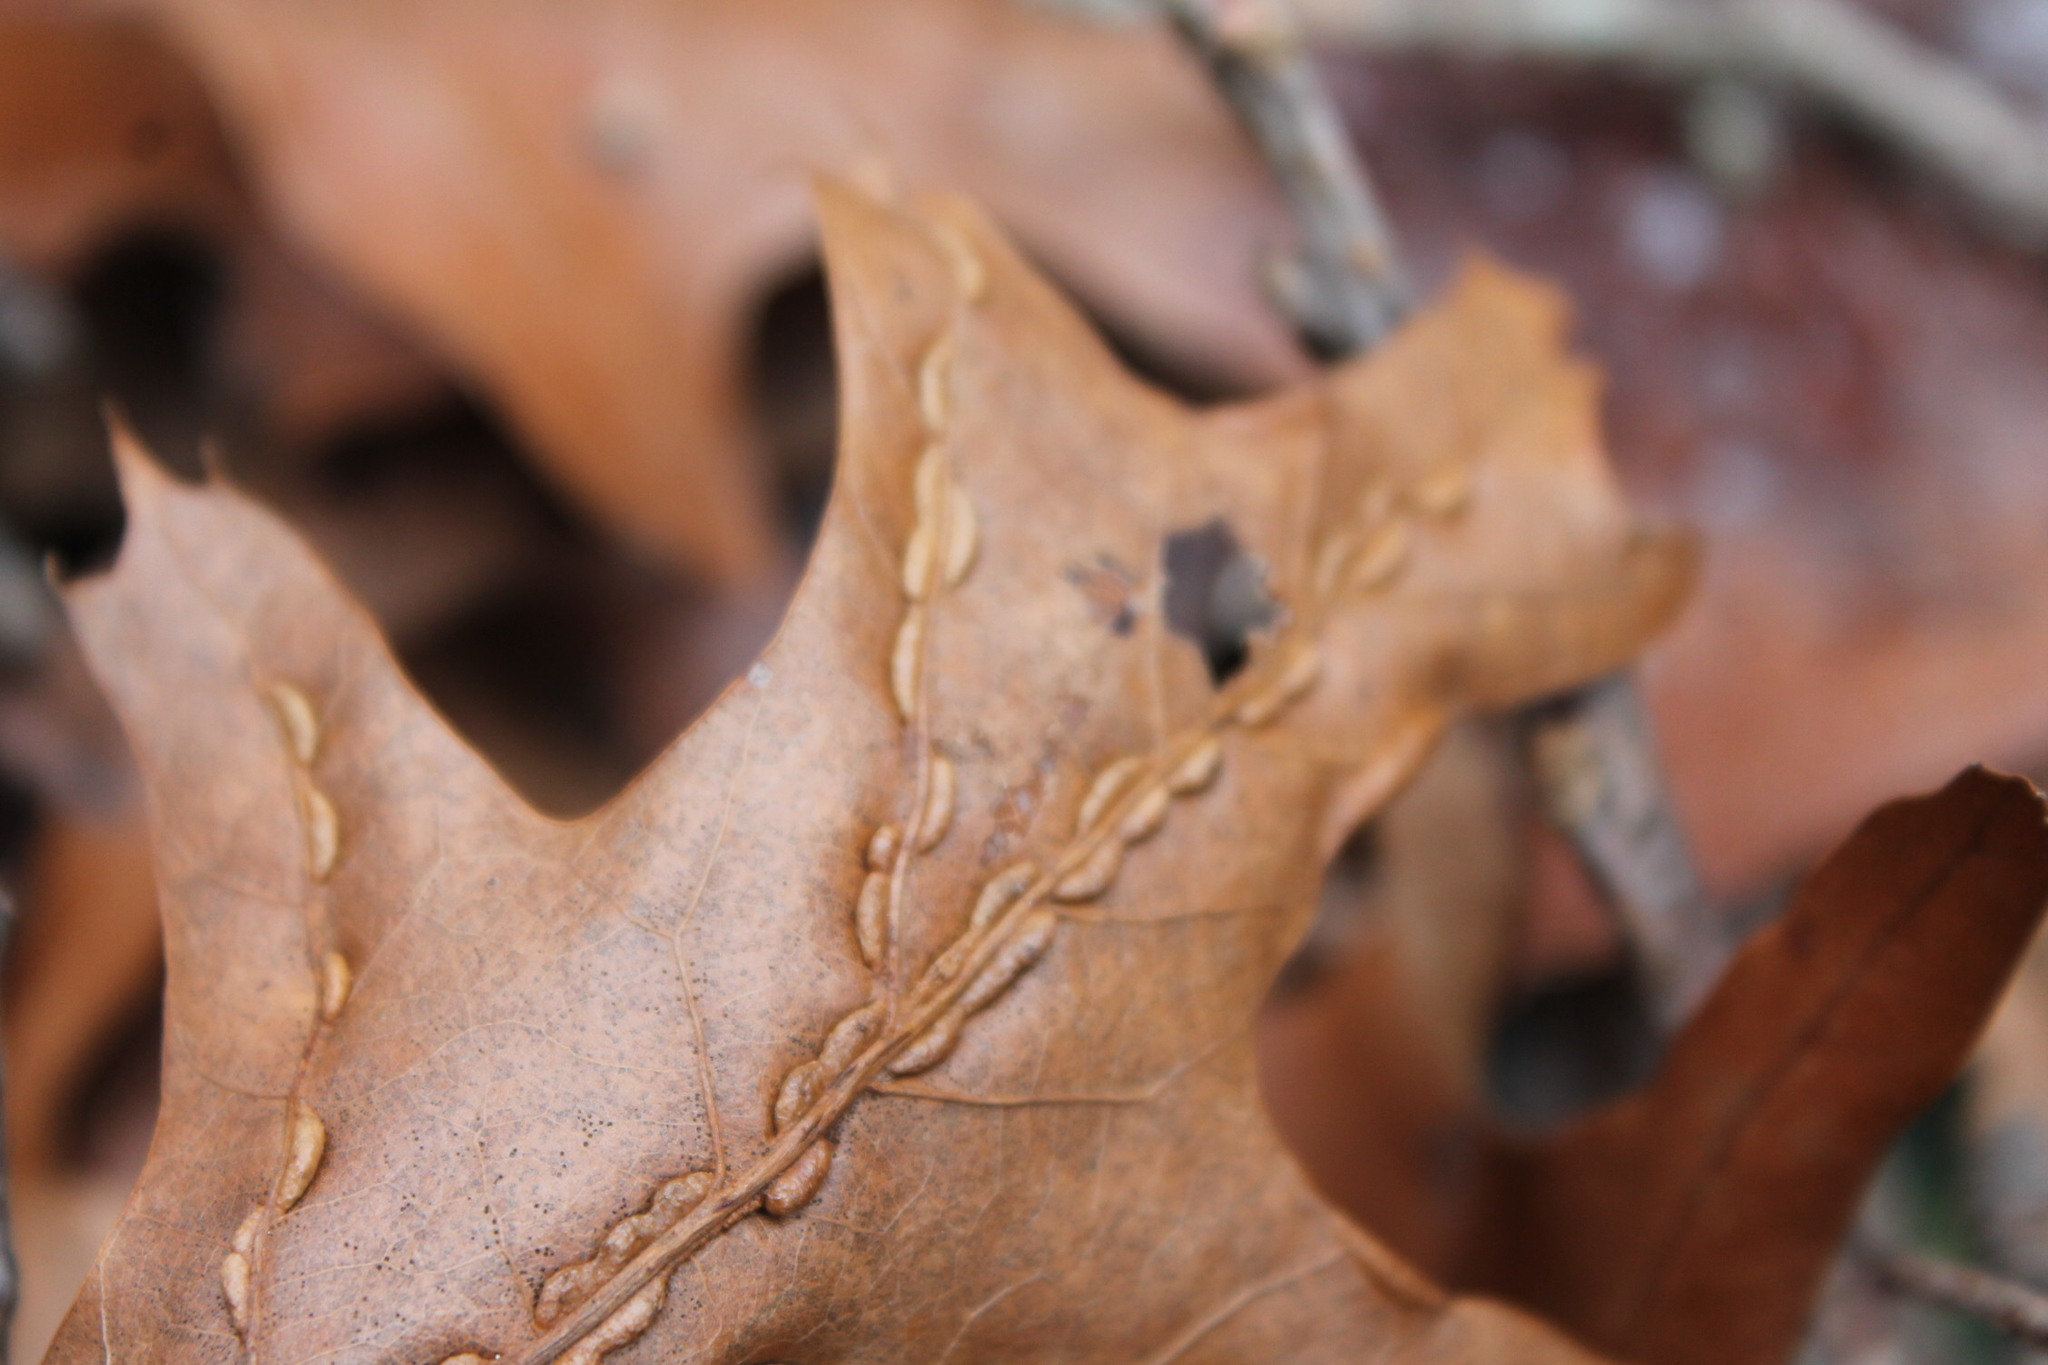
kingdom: Animalia
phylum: Arthropoda
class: Insecta
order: Diptera
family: Cecidomyiidae
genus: Macrodiplosis
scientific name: Macrodiplosis q-orucum
